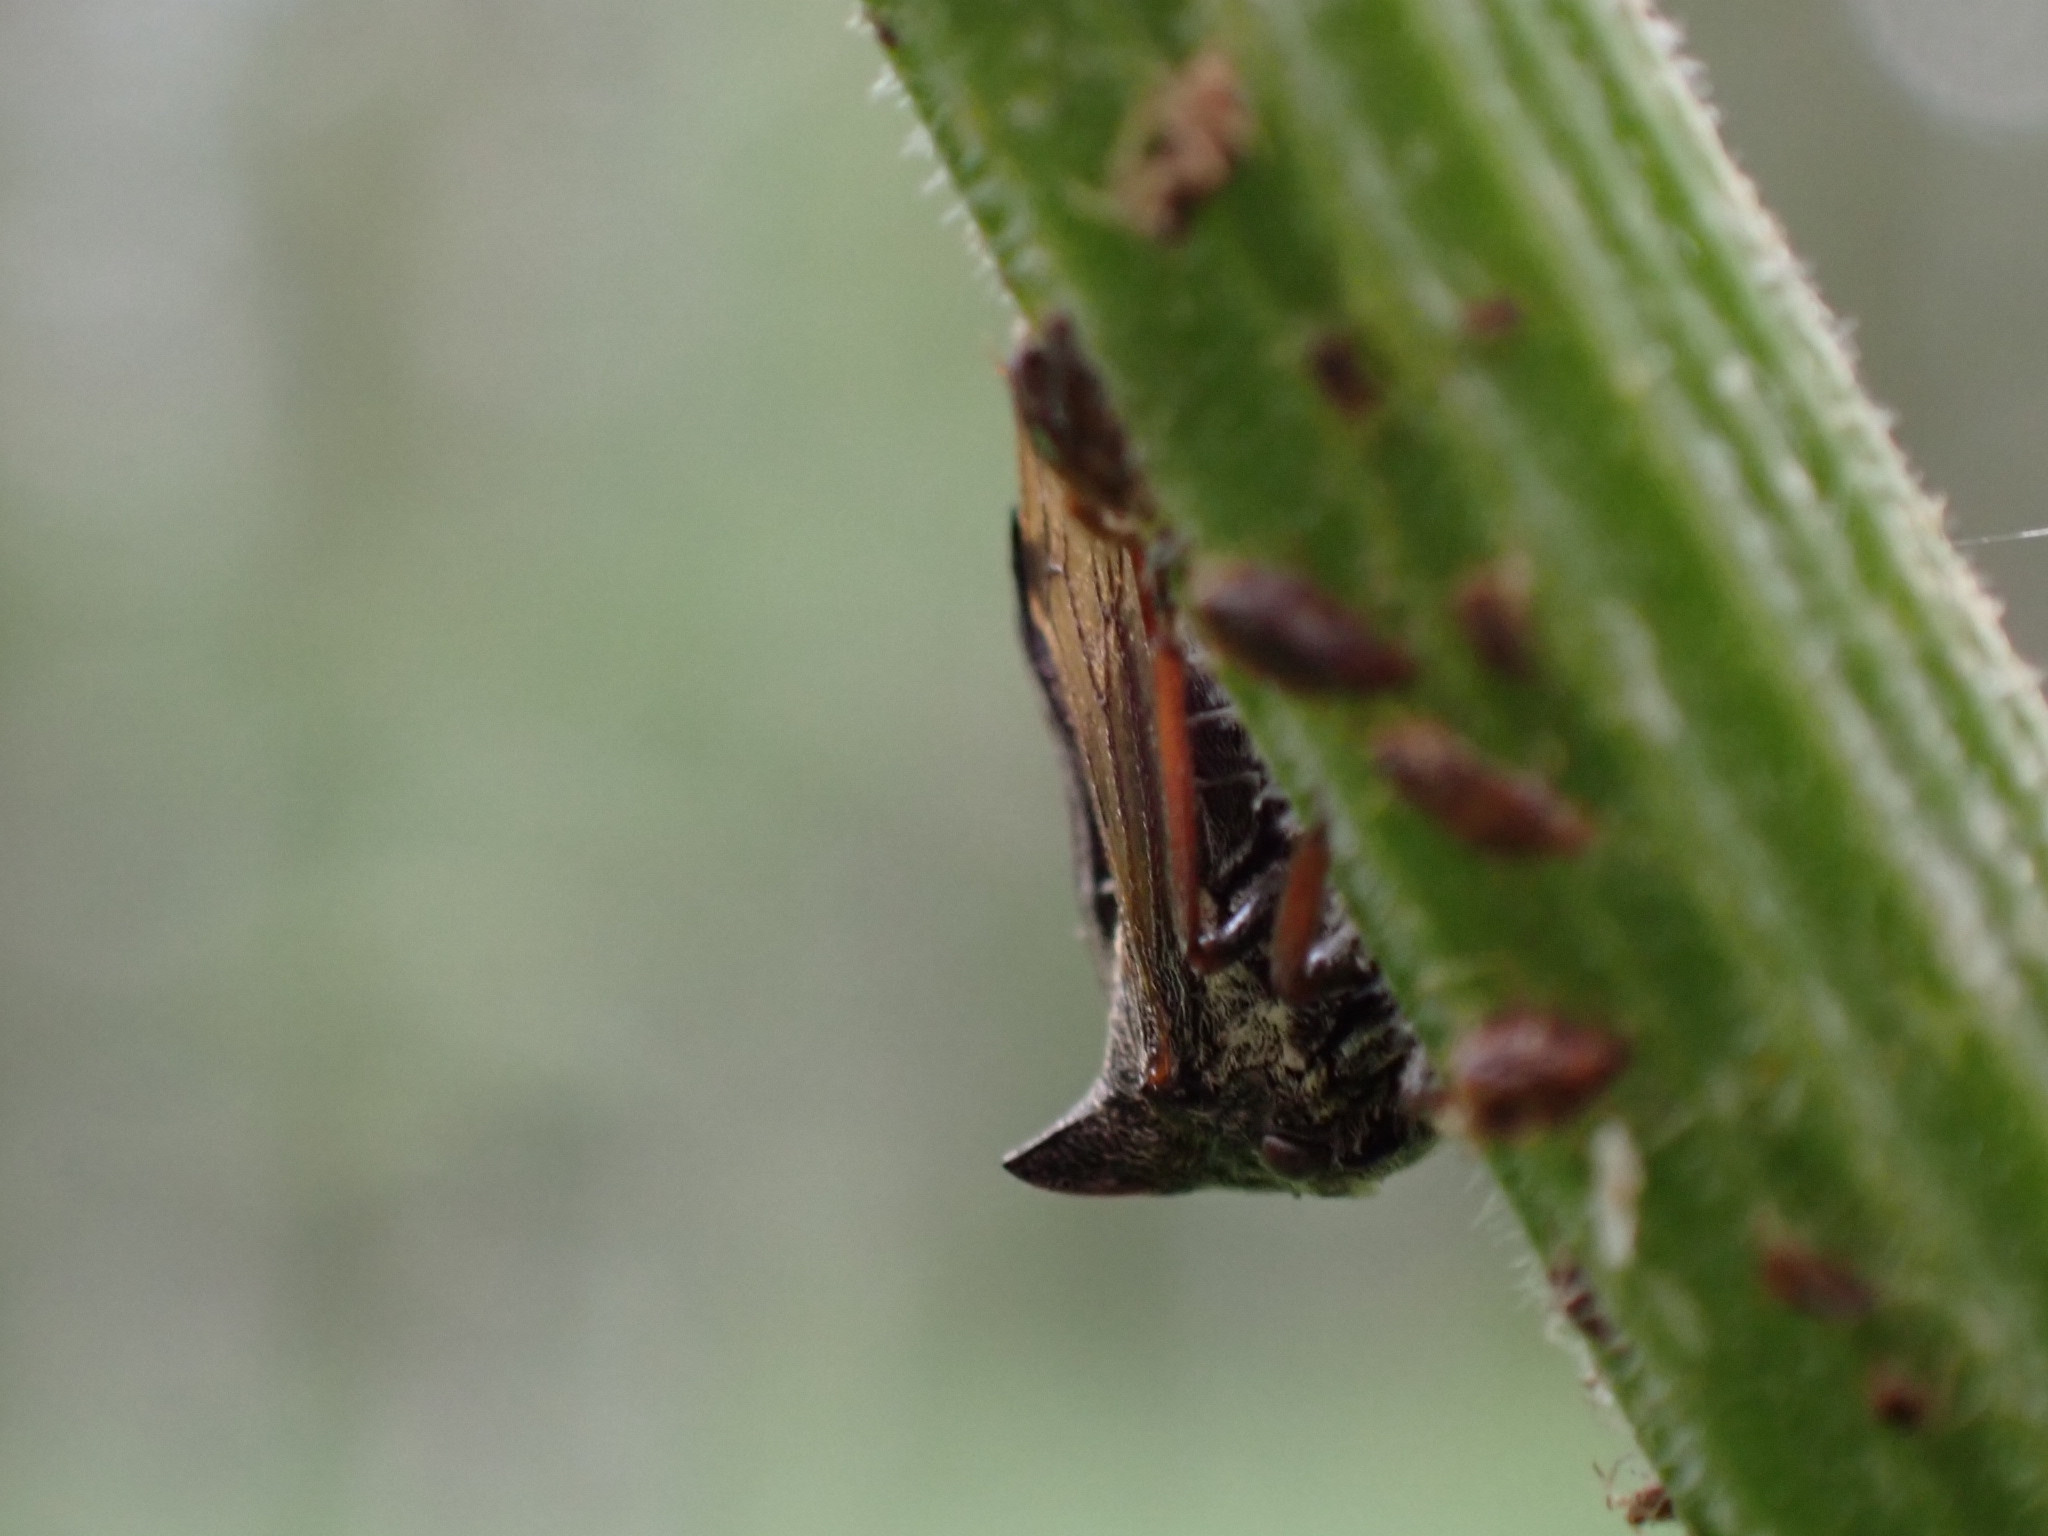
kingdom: Animalia
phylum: Arthropoda
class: Insecta
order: Hemiptera
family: Membracidae
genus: Centrotus
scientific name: Centrotus cornuta
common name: Treehopper
